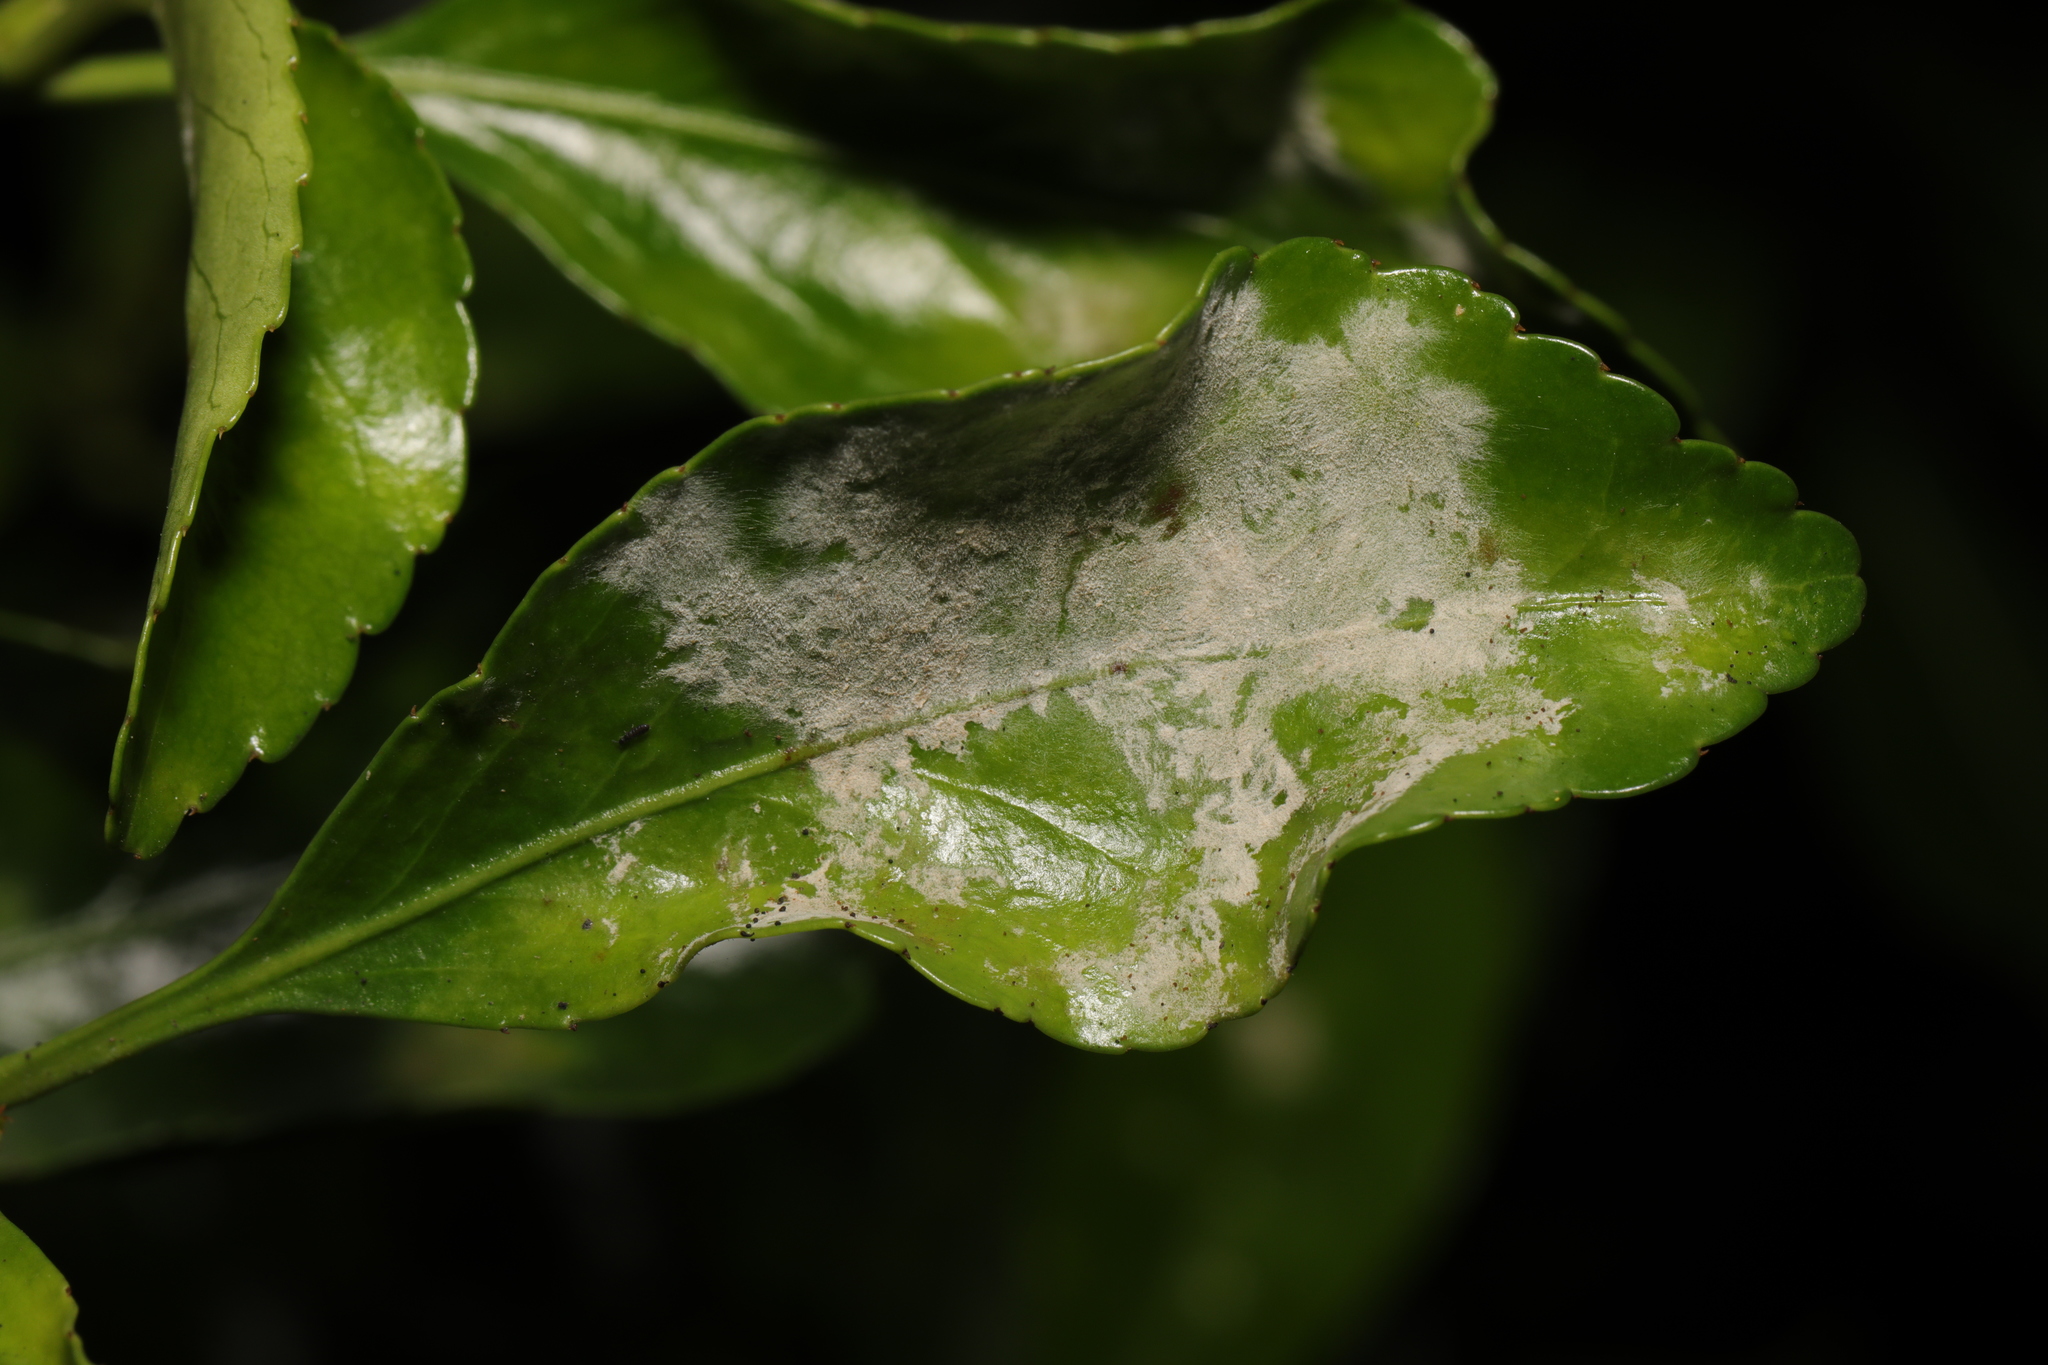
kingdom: Fungi
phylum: Ascomycota
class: Leotiomycetes
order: Helotiales
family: Erysiphaceae
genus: Erysiphe
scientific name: Erysiphe euonymicola
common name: Spindletree mildew
